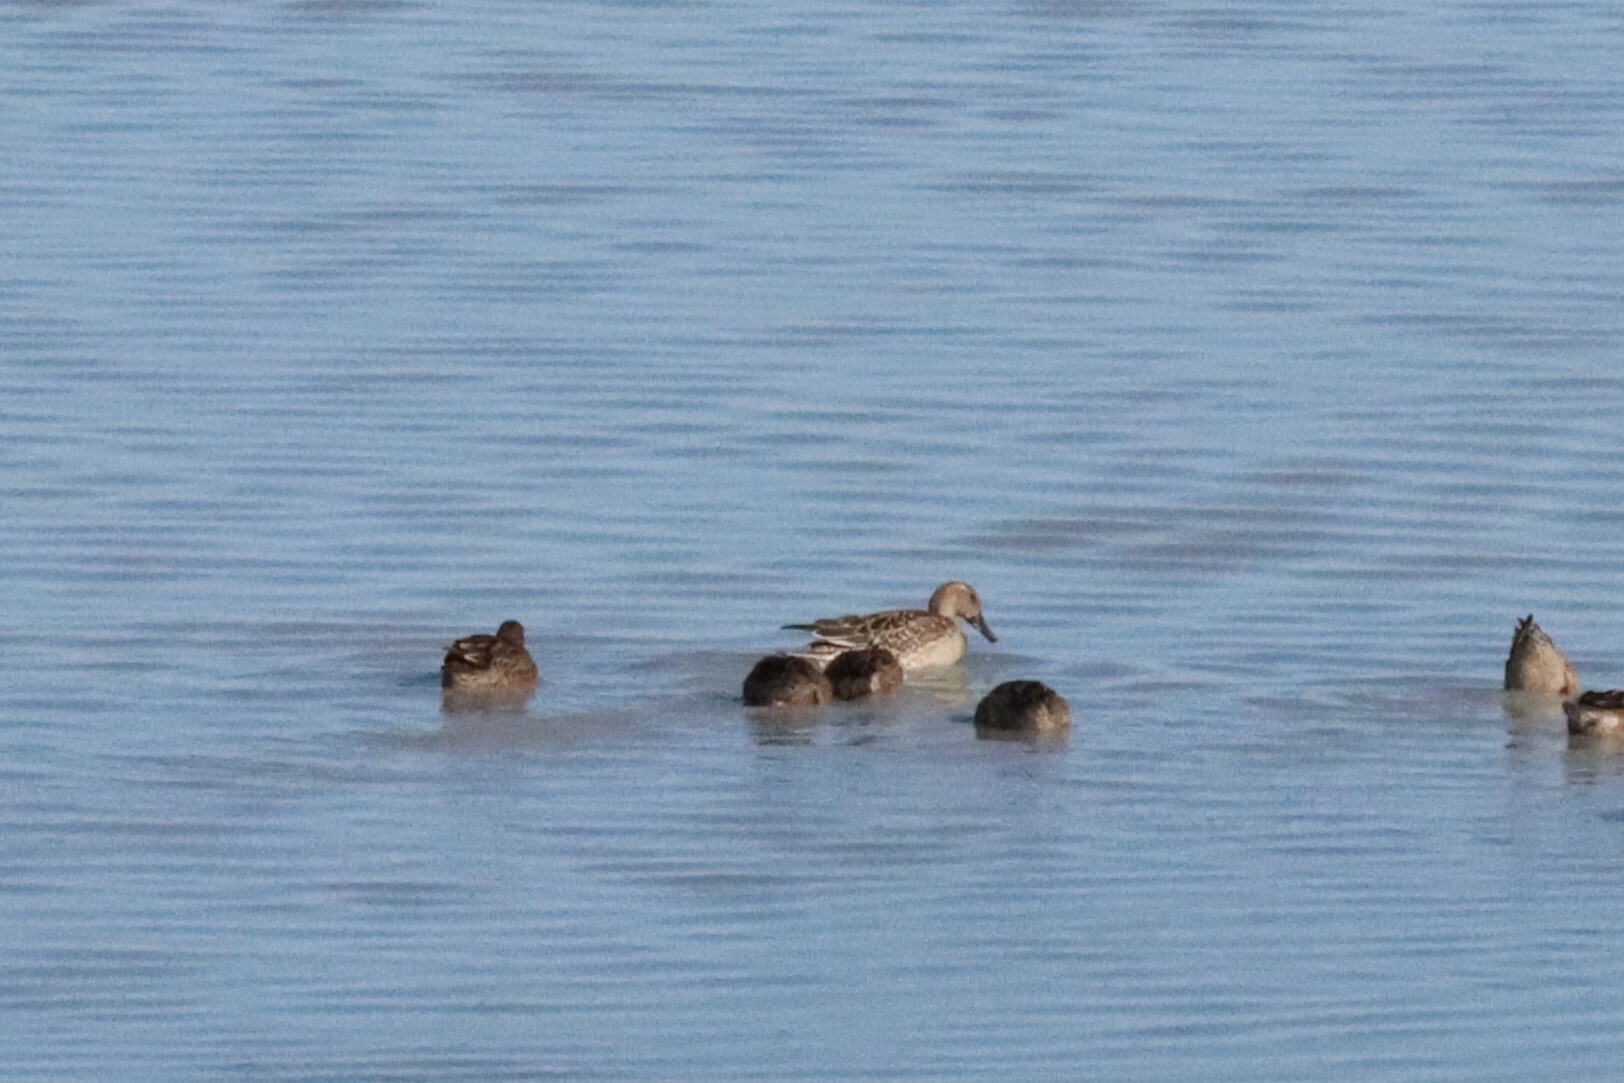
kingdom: Animalia
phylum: Chordata
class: Aves
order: Anseriformes
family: Anatidae
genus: Anas
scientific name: Anas acuta
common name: Northern pintail
